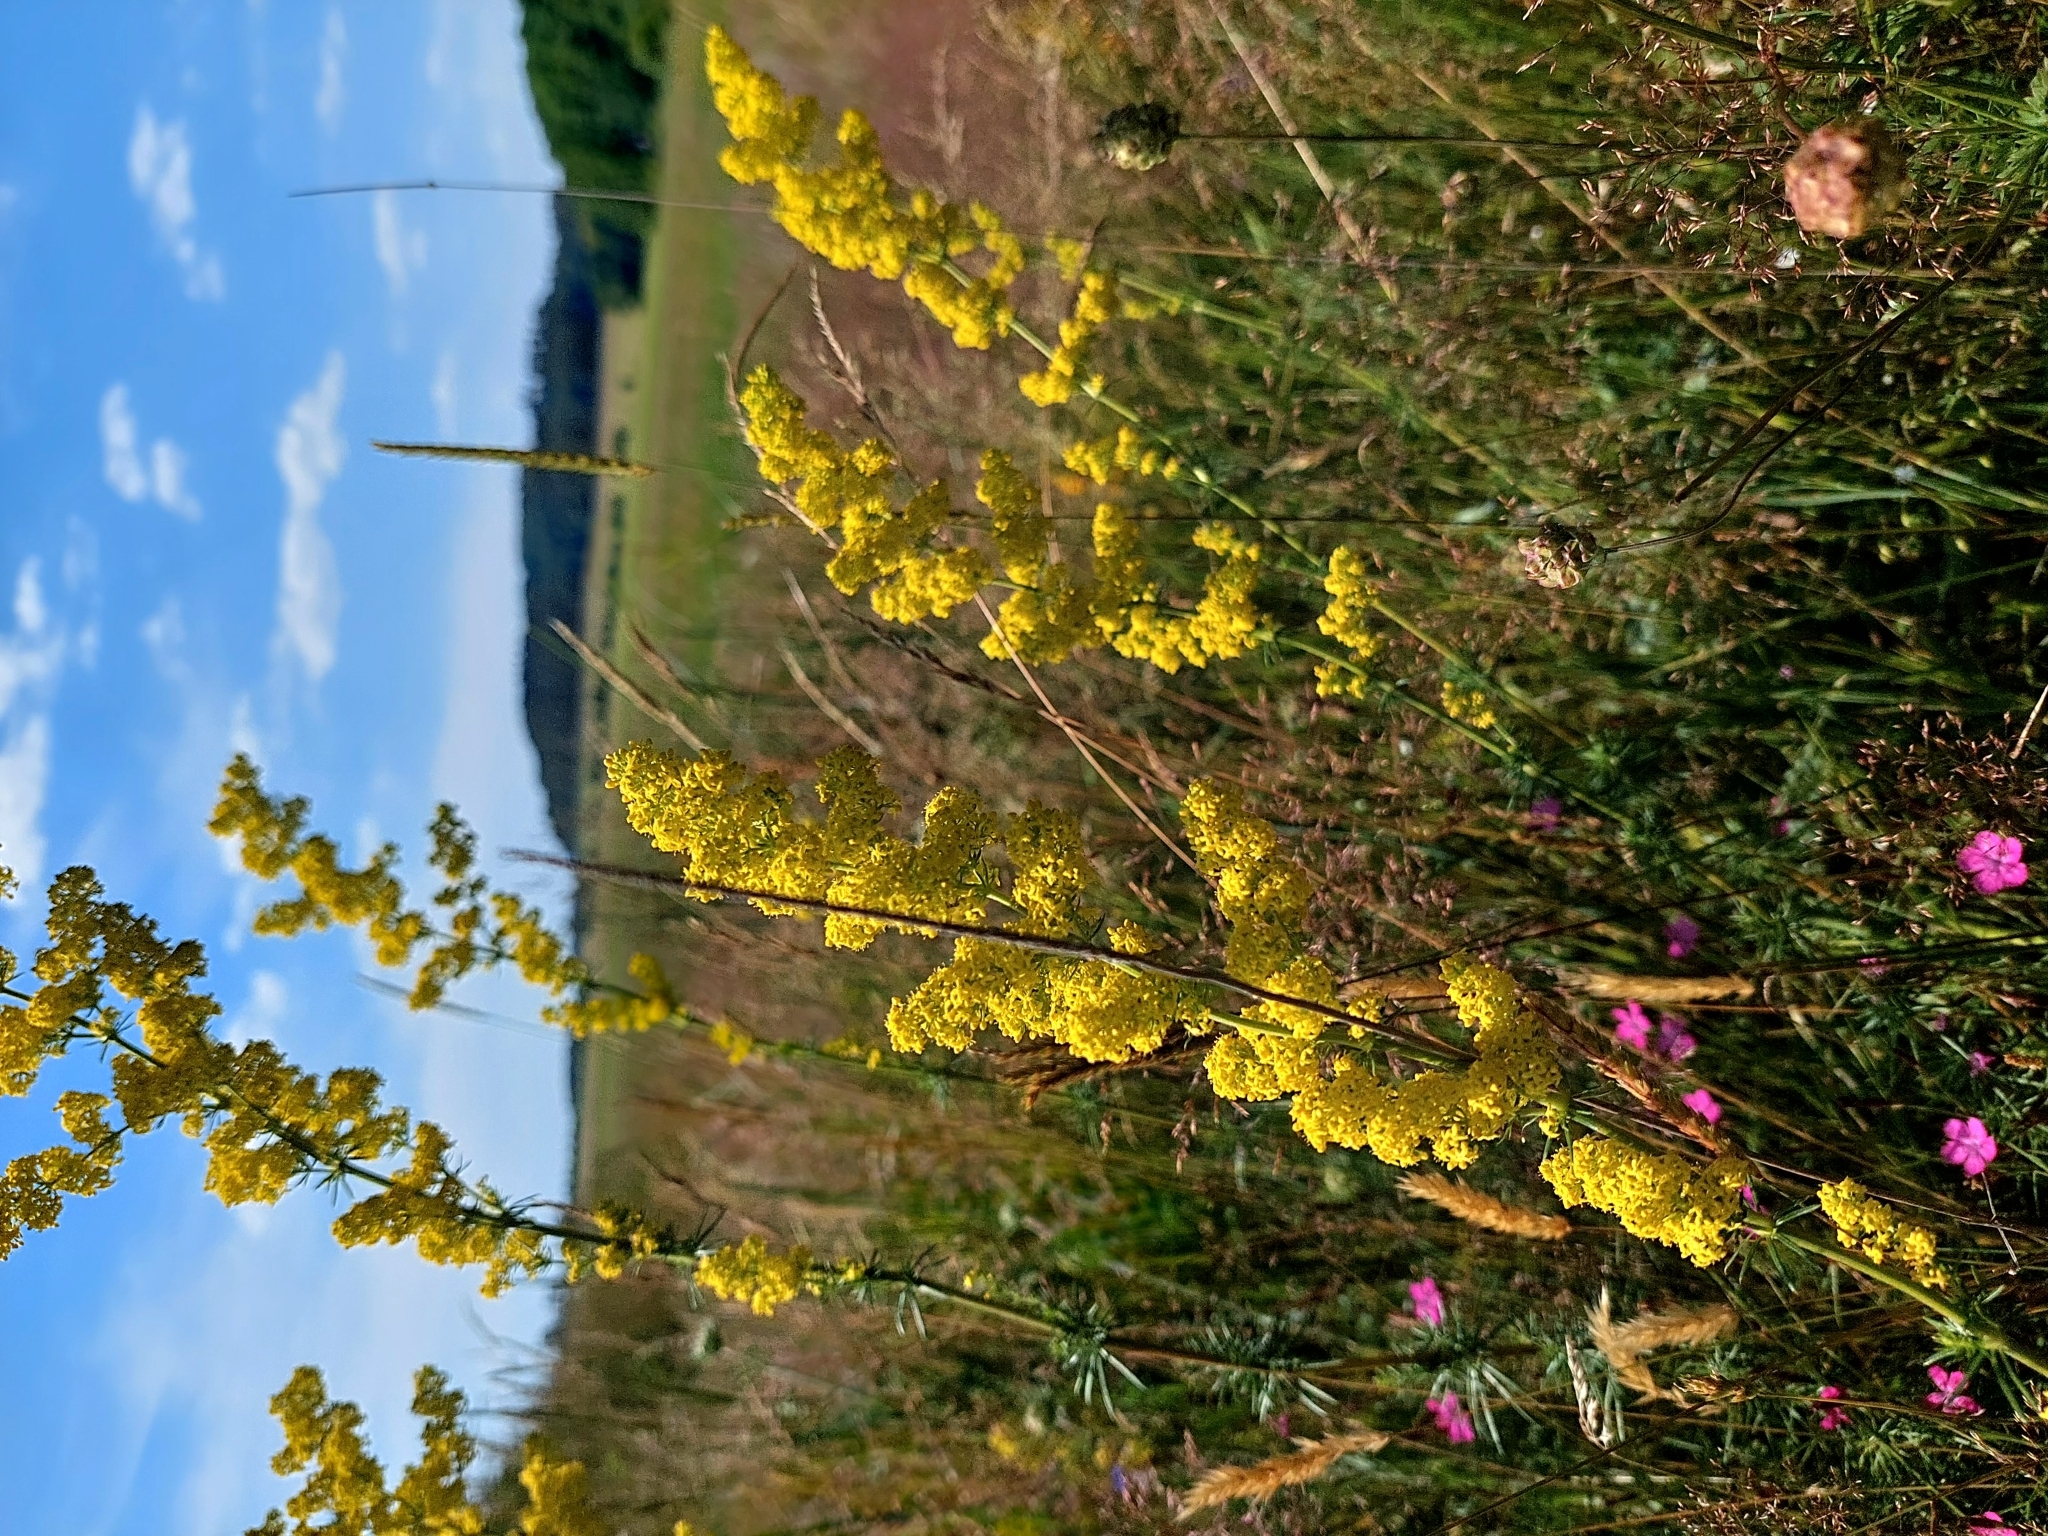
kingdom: Plantae
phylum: Tracheophyta
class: Magnoliopsida
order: Gentianales
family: Rubiaceae
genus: Galium
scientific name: Galium verum
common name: Lady's bedstraw
